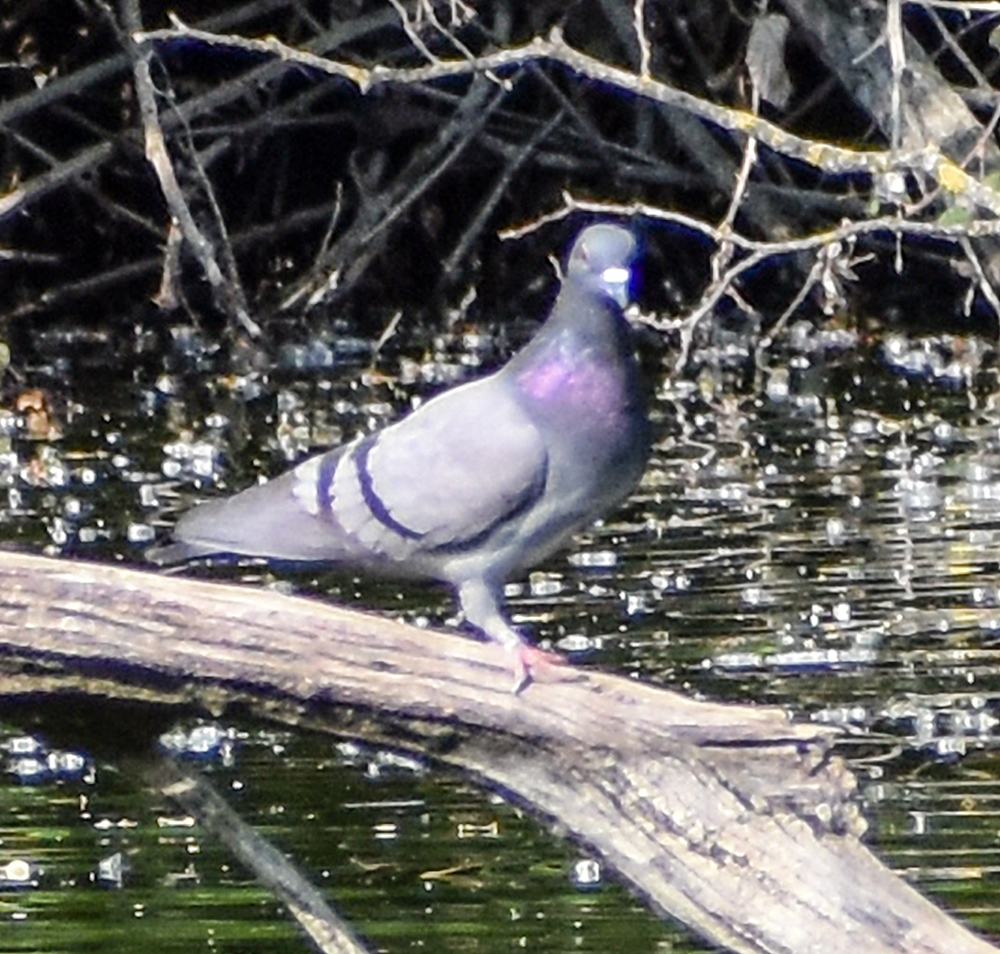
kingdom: Animalia
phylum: Chordata
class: Aves
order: Columbiformes
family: Columbidae
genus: Columba
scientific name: Columba livia
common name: Rock pigeon
